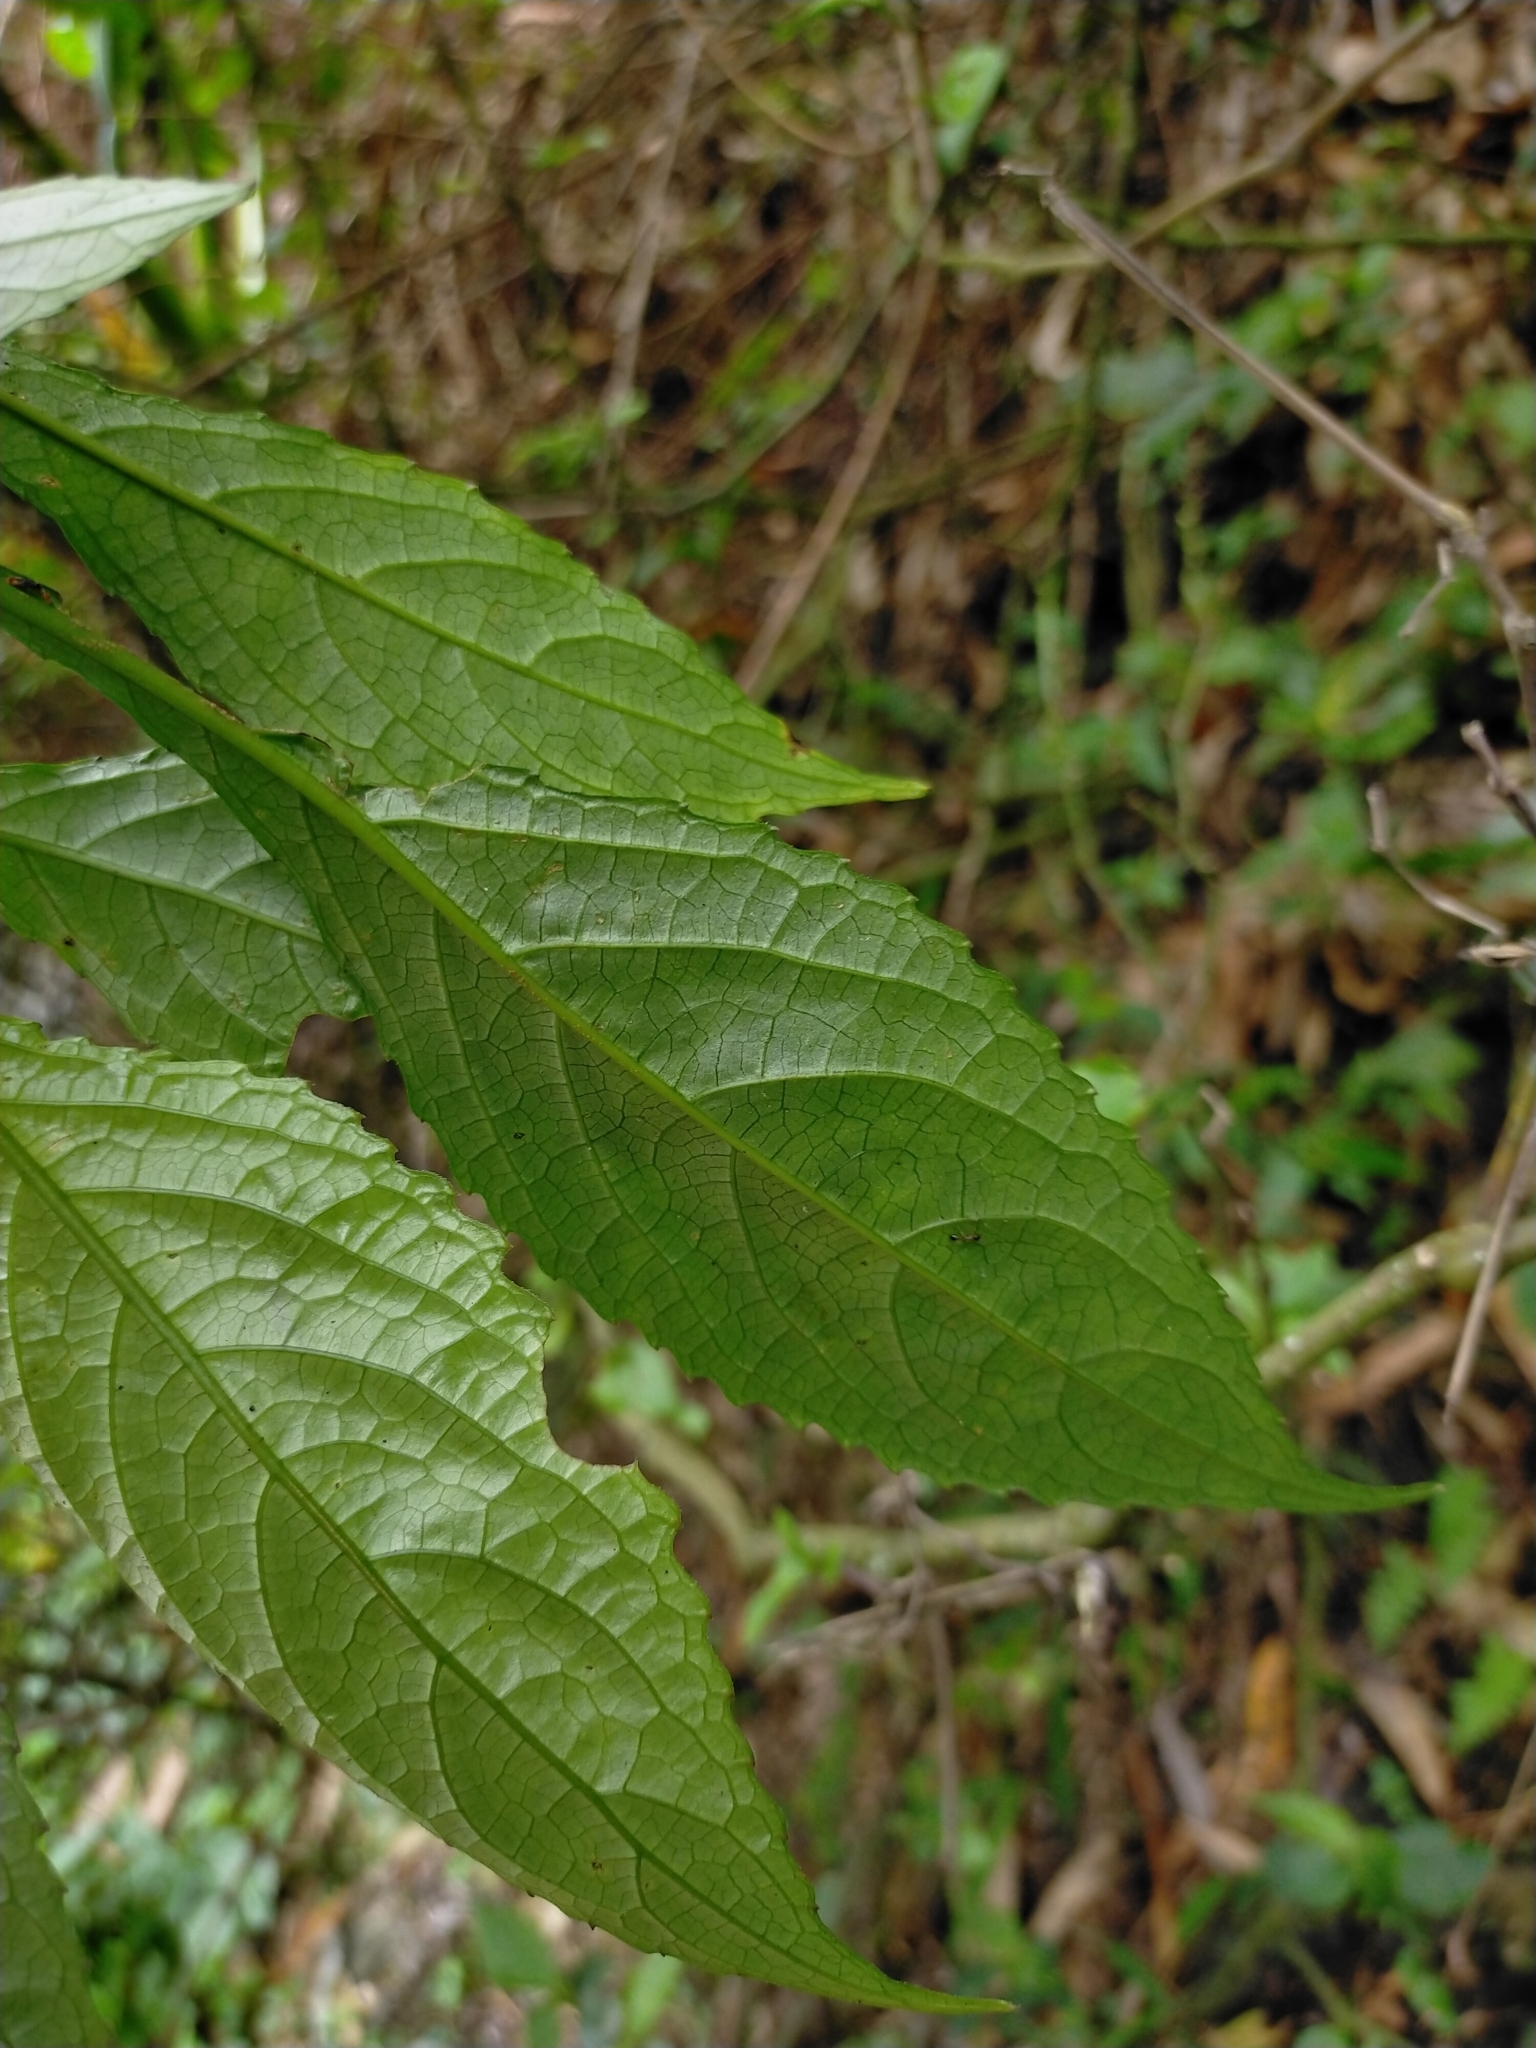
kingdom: Plantae
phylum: Tracheophyta
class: Magnoliopsida
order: Lamiales
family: Acanthaceae
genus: Strobilanthes
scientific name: Strobilanthes flexicaulis
